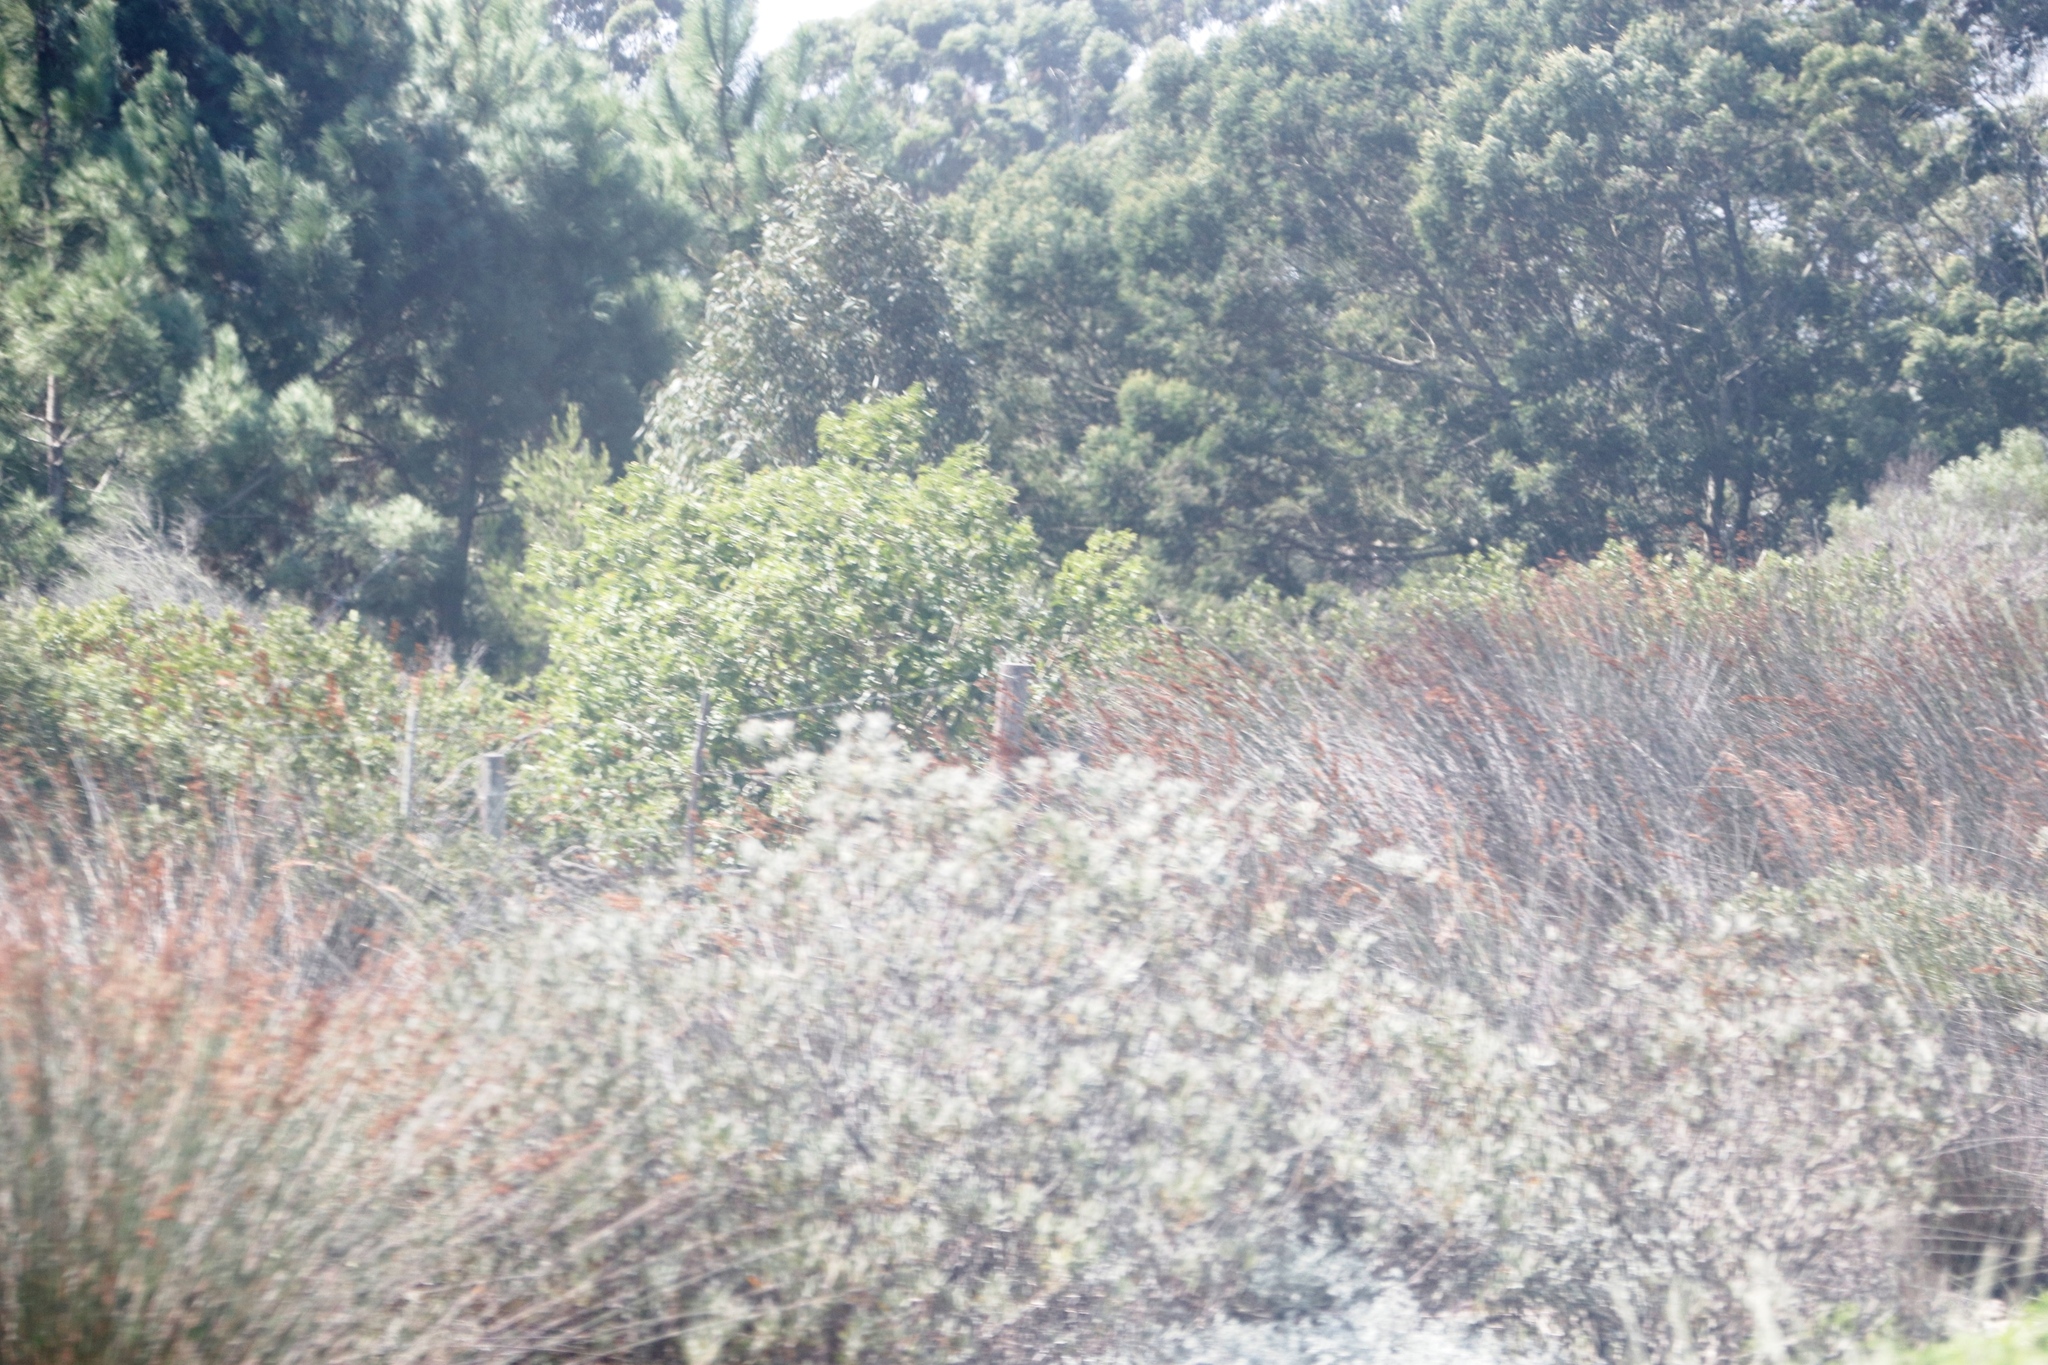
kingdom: Plantae
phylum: Tracheophyta
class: Magnoliopsida
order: Proteales
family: Proteaceae
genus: Leucospermum
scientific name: Leucospermum praecox
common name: Mossel bay pincushion
